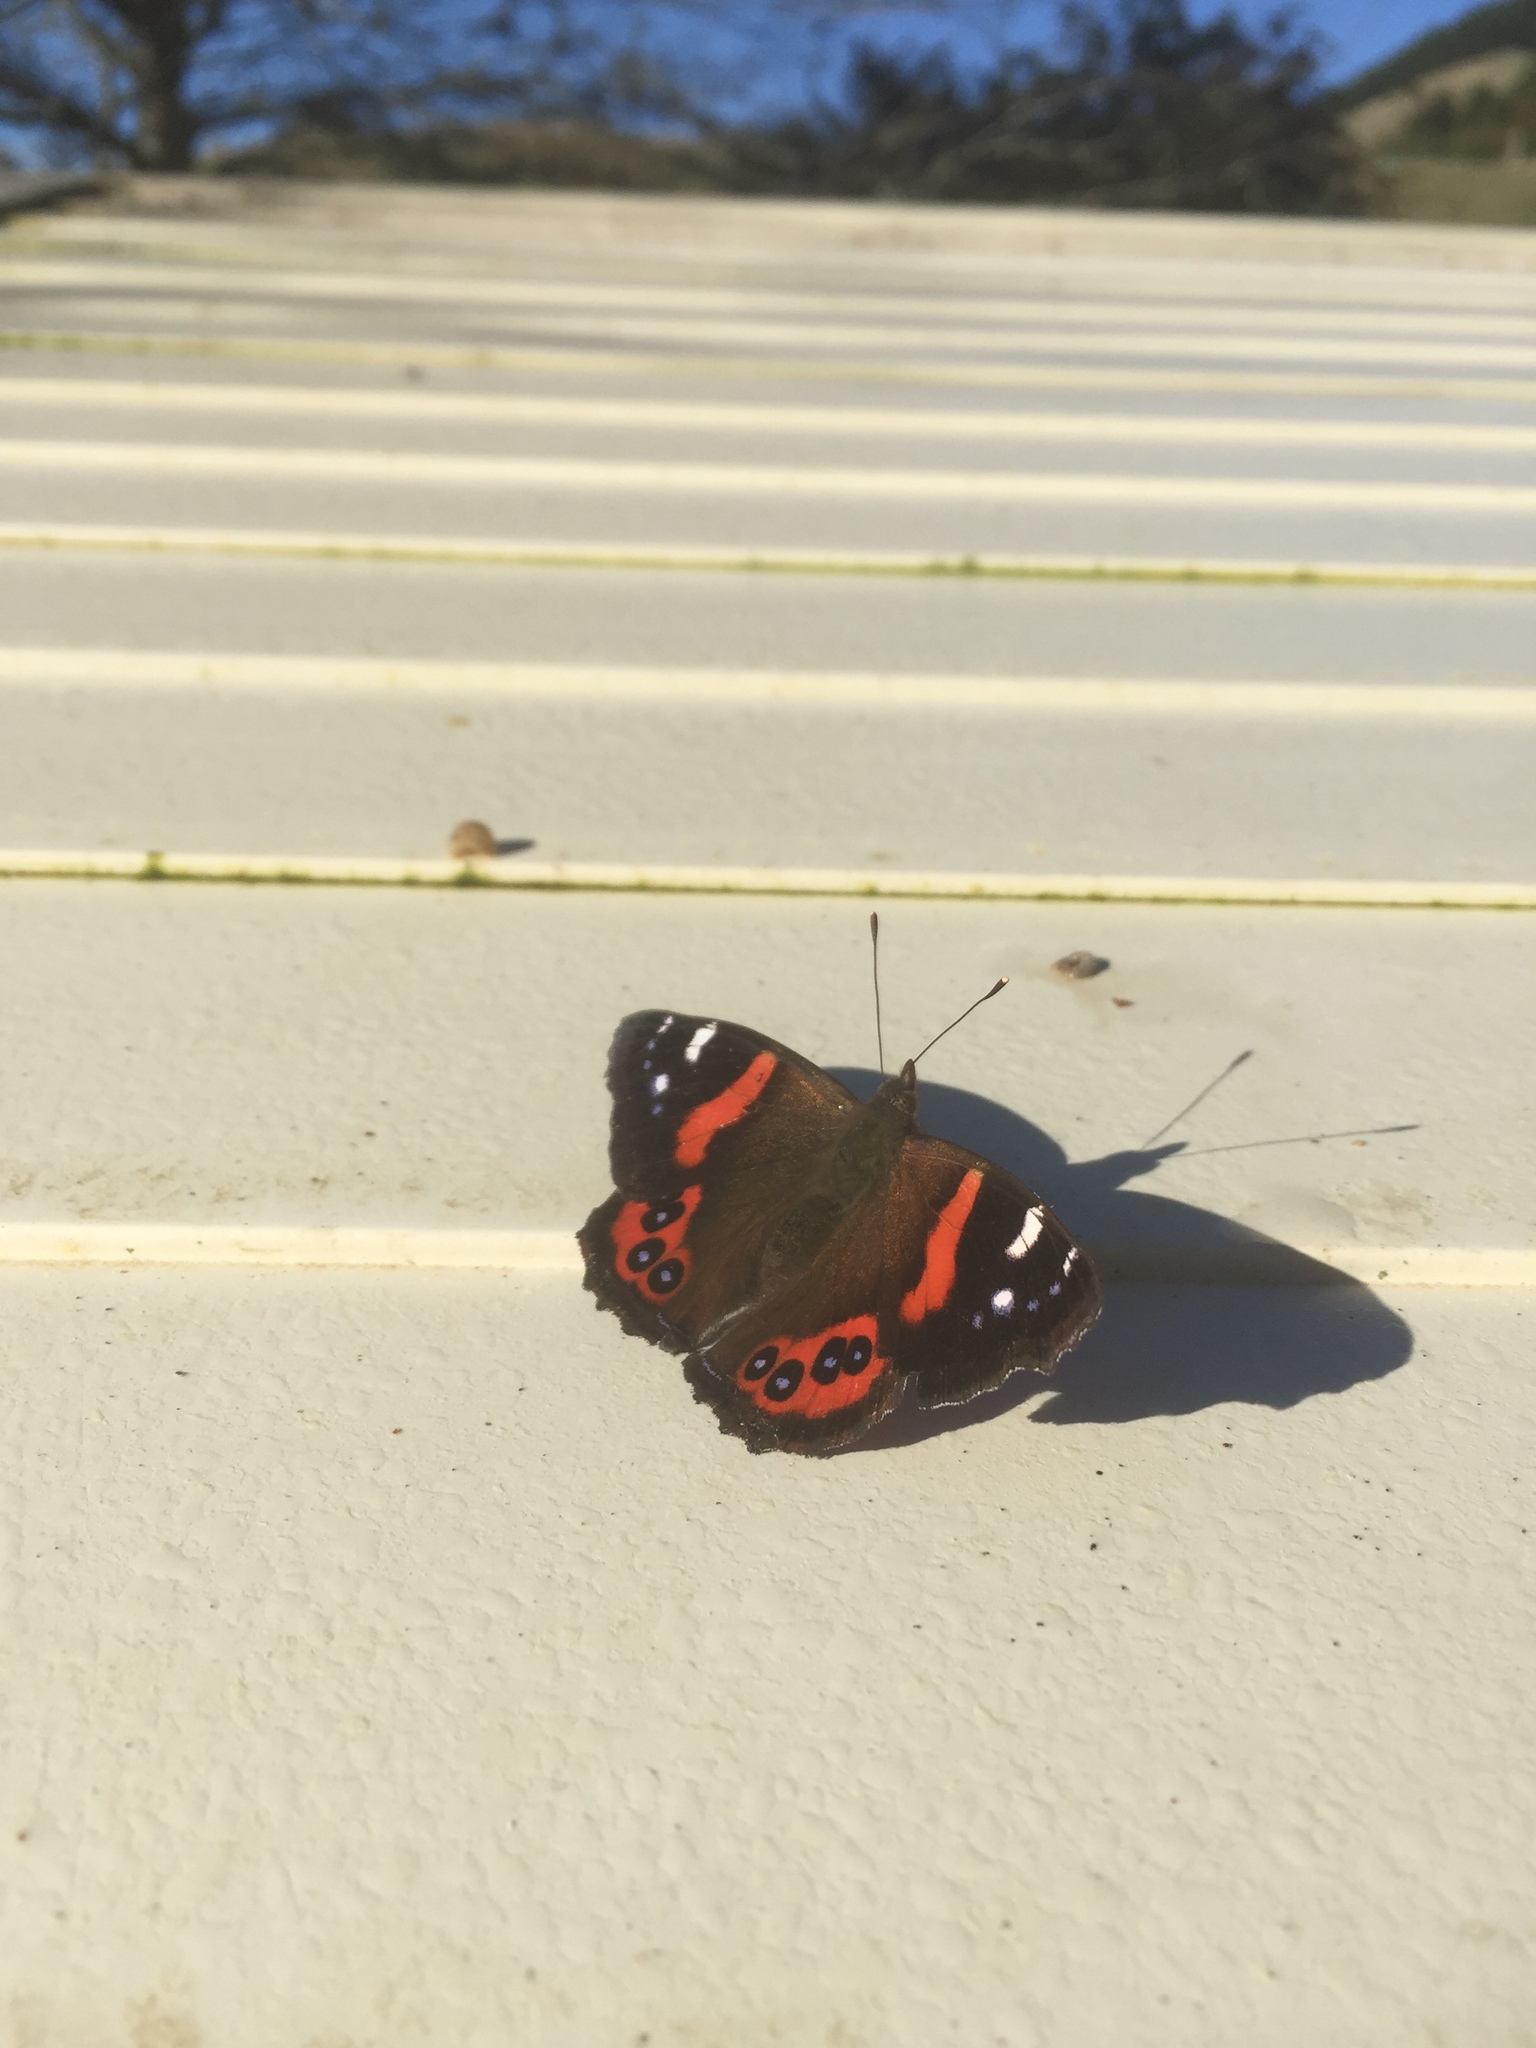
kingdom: Animalia
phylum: Arthropoda
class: Insecta
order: Lepidoptera
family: Nymphalidae
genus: Vanessa
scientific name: Vanessa gonerilla
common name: New zealand red admiral
